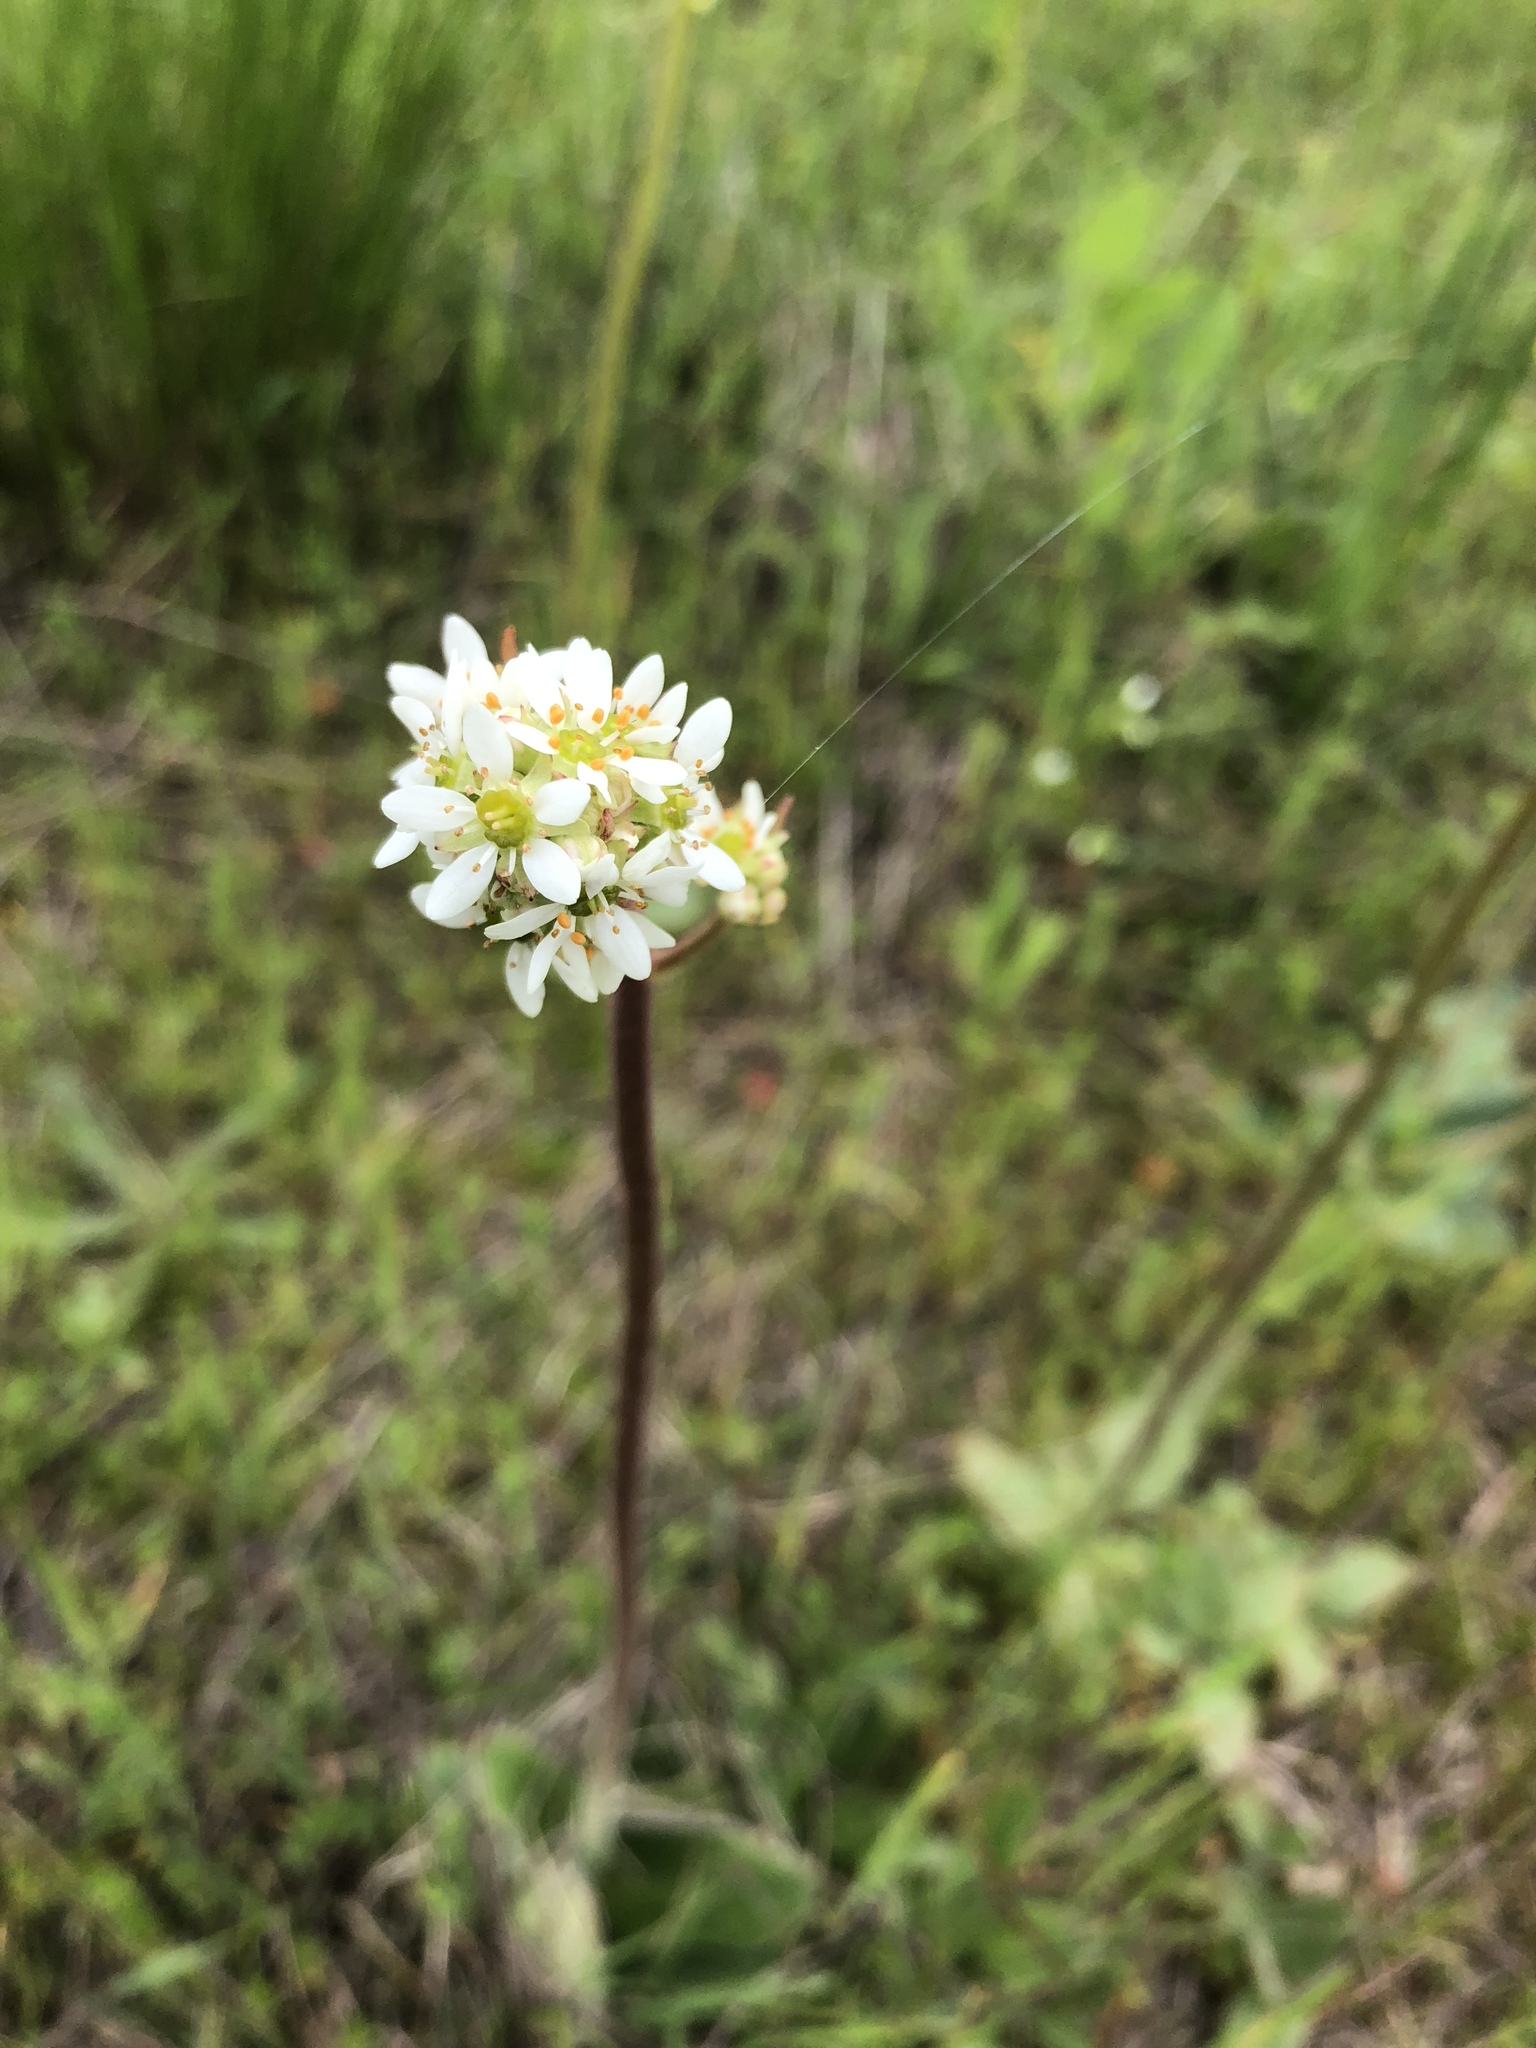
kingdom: Plantae
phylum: Tracheophyta
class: Magnoliopsida
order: Saxifragales
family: Saxifragaceae
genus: Micranthes
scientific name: Micranthes oregana
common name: Bog saxifrage
